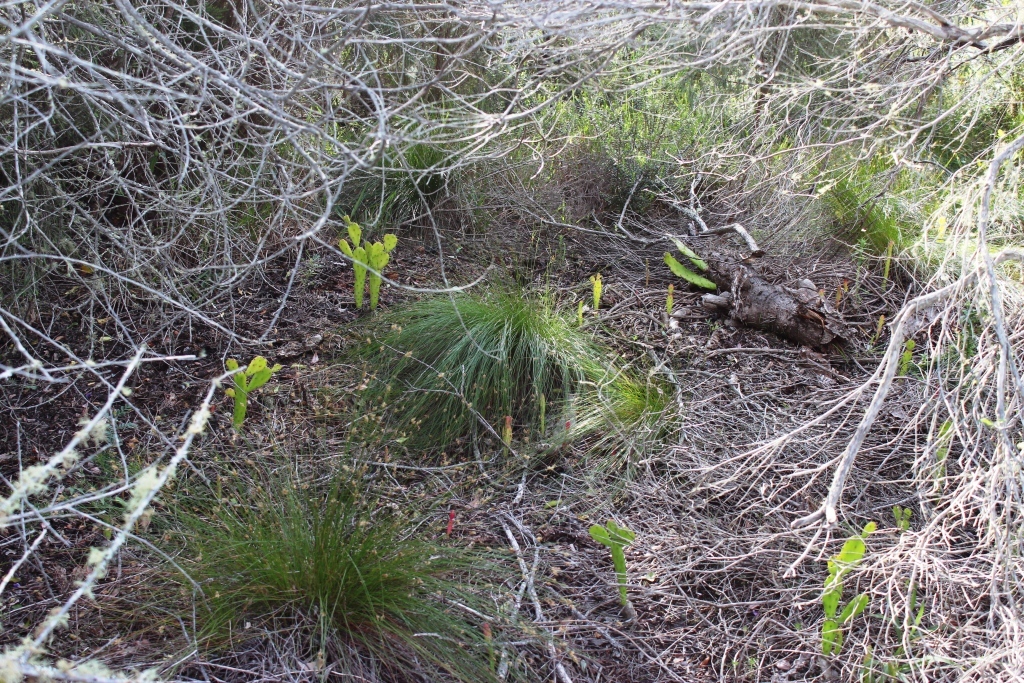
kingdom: Plantae
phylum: Tracheophyta
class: Magnoliopsida
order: Caryophyllales
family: Cactaceae
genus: Opuntia
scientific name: Opuntia monacantha
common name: Common pricklypear
